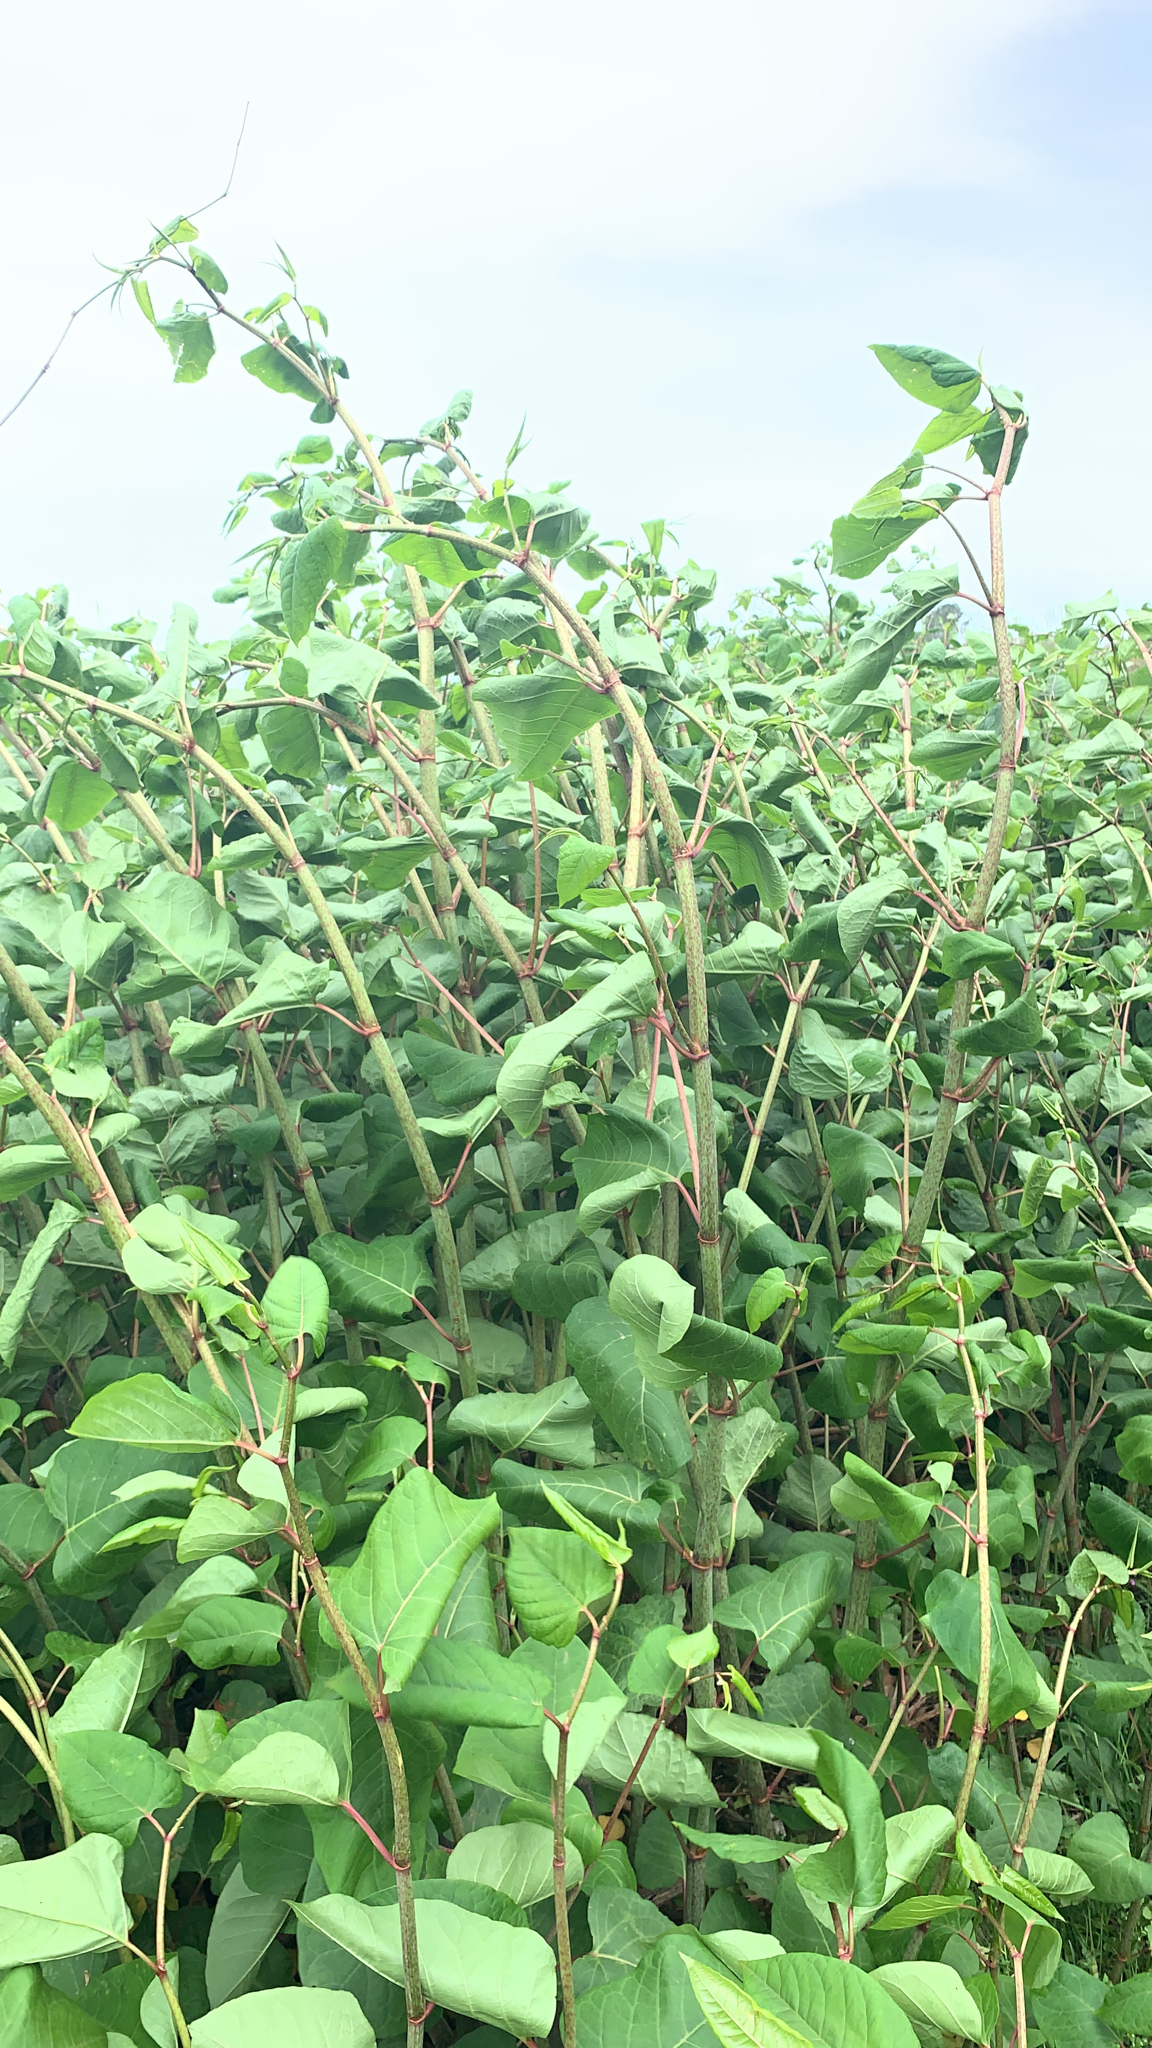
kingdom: Plantae
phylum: Tracheophyta
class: Magnoliopsida
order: Caryophyllales
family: Polygonaceae
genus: Reynoutria
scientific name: Reynoutria japonica
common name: Japanese knotweed
